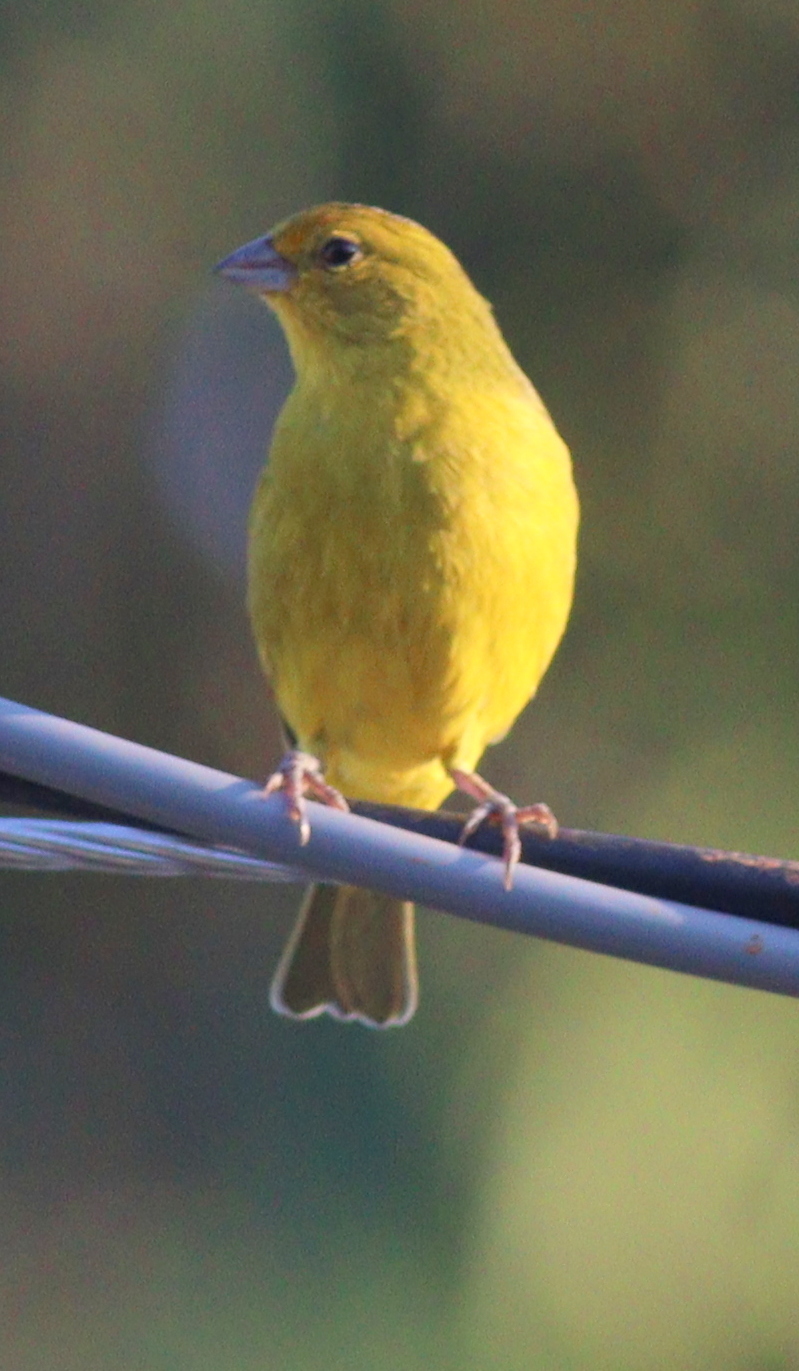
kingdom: Animalia
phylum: Chordata
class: Aves
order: Passeriformes
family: Thraupidae
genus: Sicalis
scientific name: Sicalis flaveola
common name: Saffron finch
